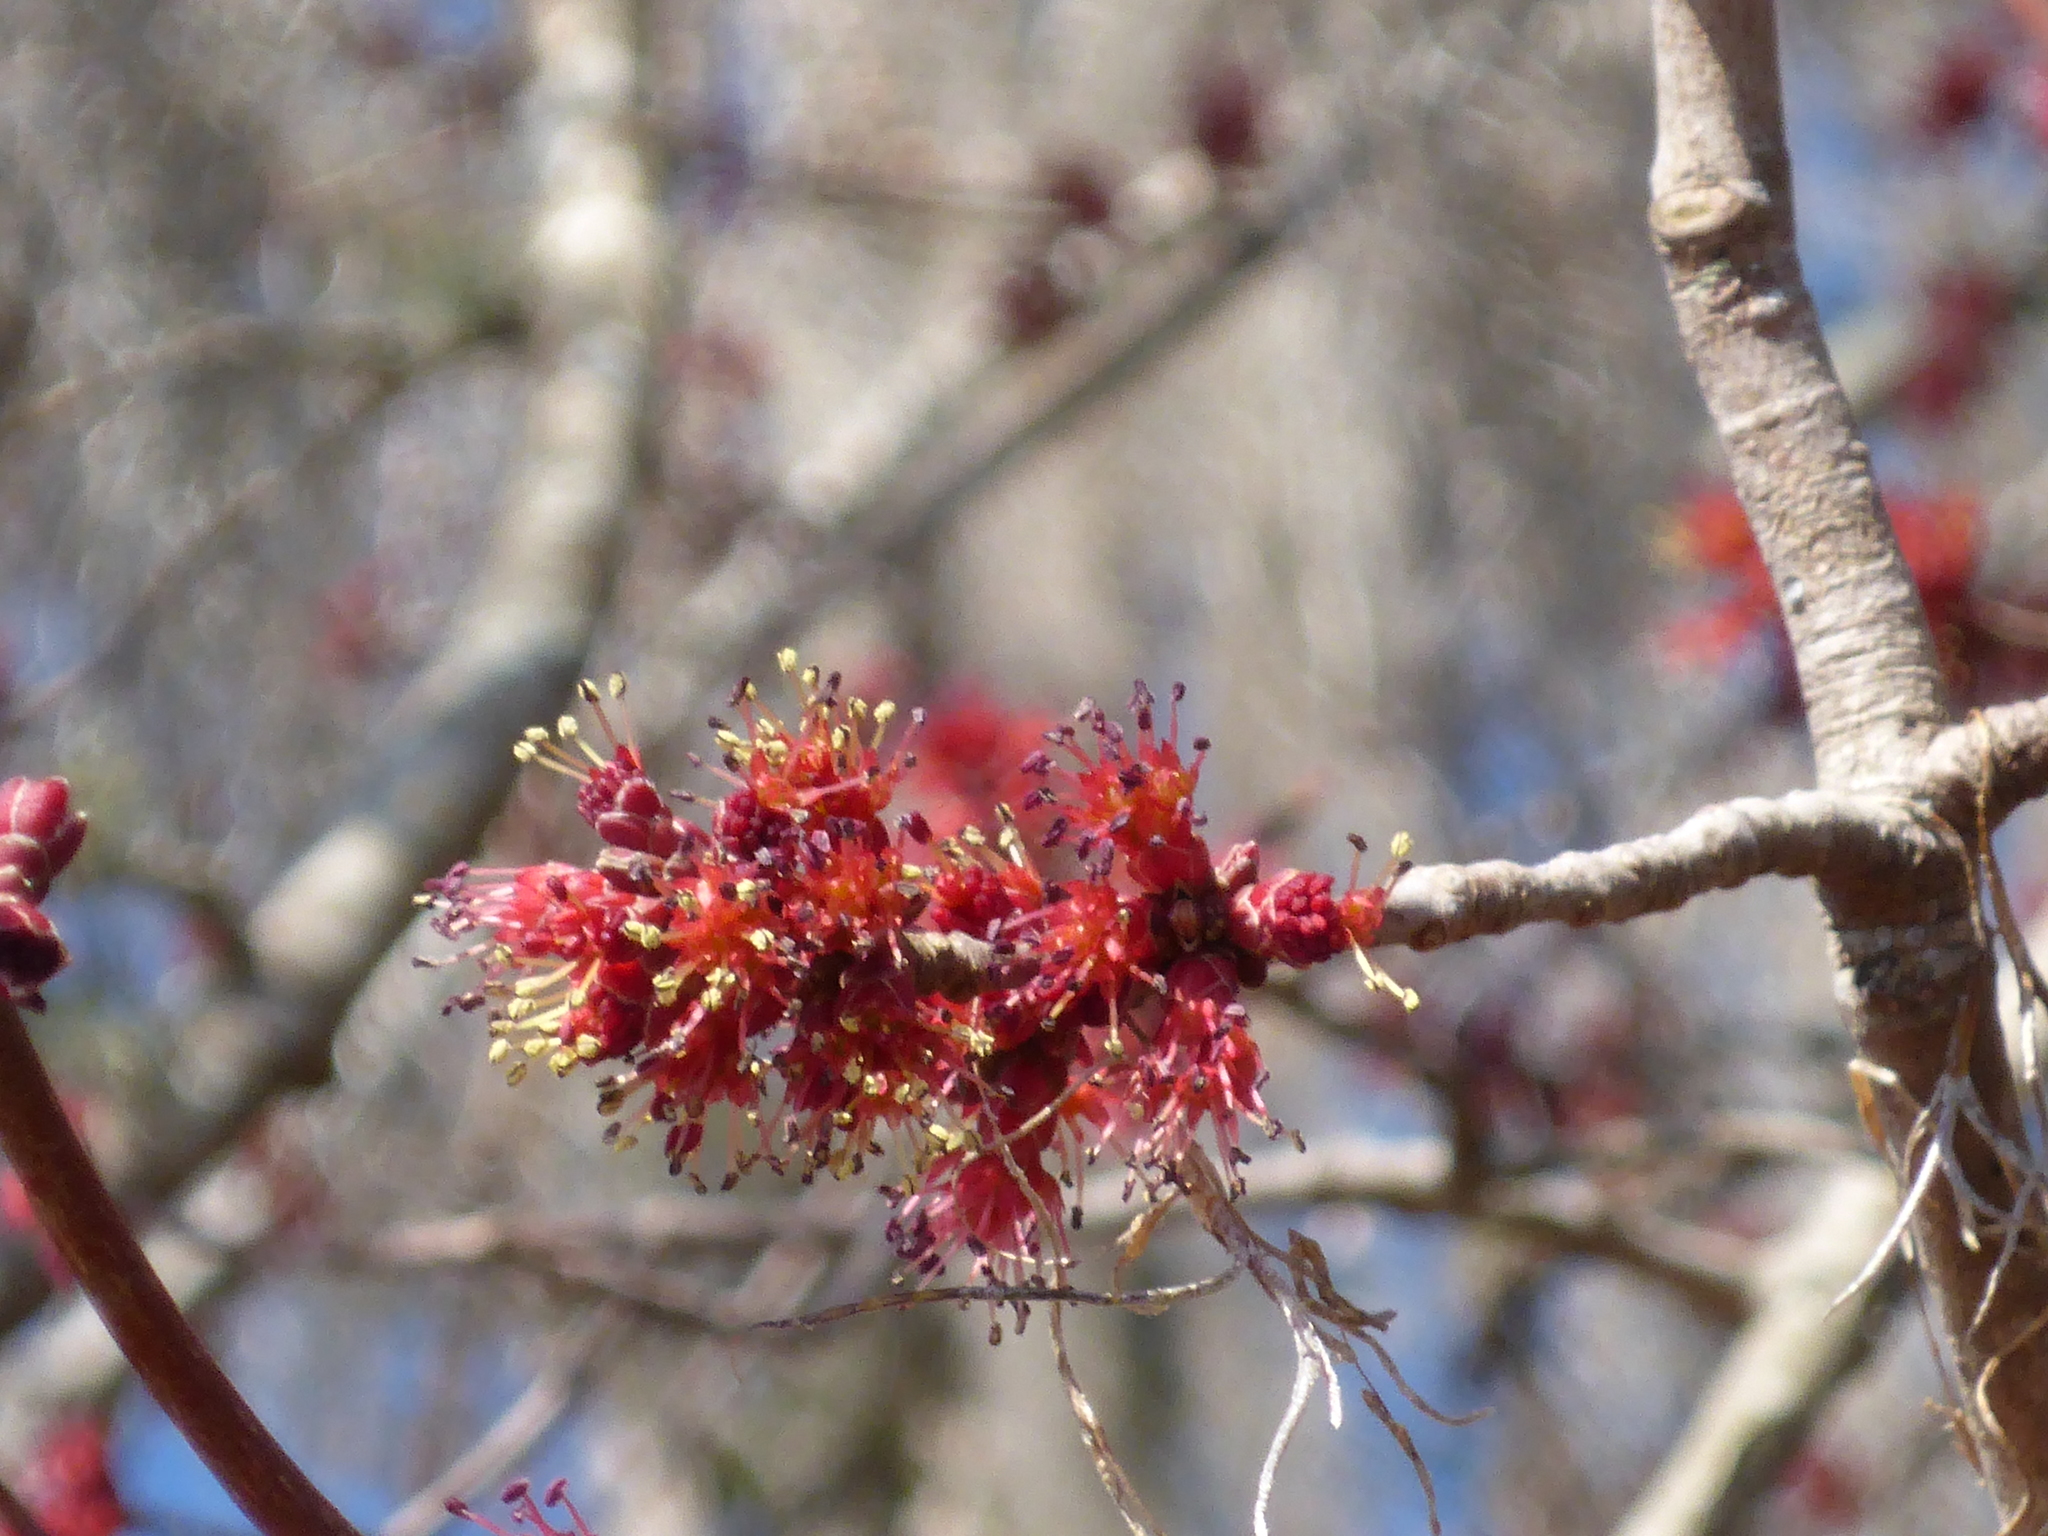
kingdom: Plantae
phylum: Tracheophyta
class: Magnoliopsida
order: Sapindales
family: Sapindaceae
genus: Acer
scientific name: Acer rubrum
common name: Red maple
